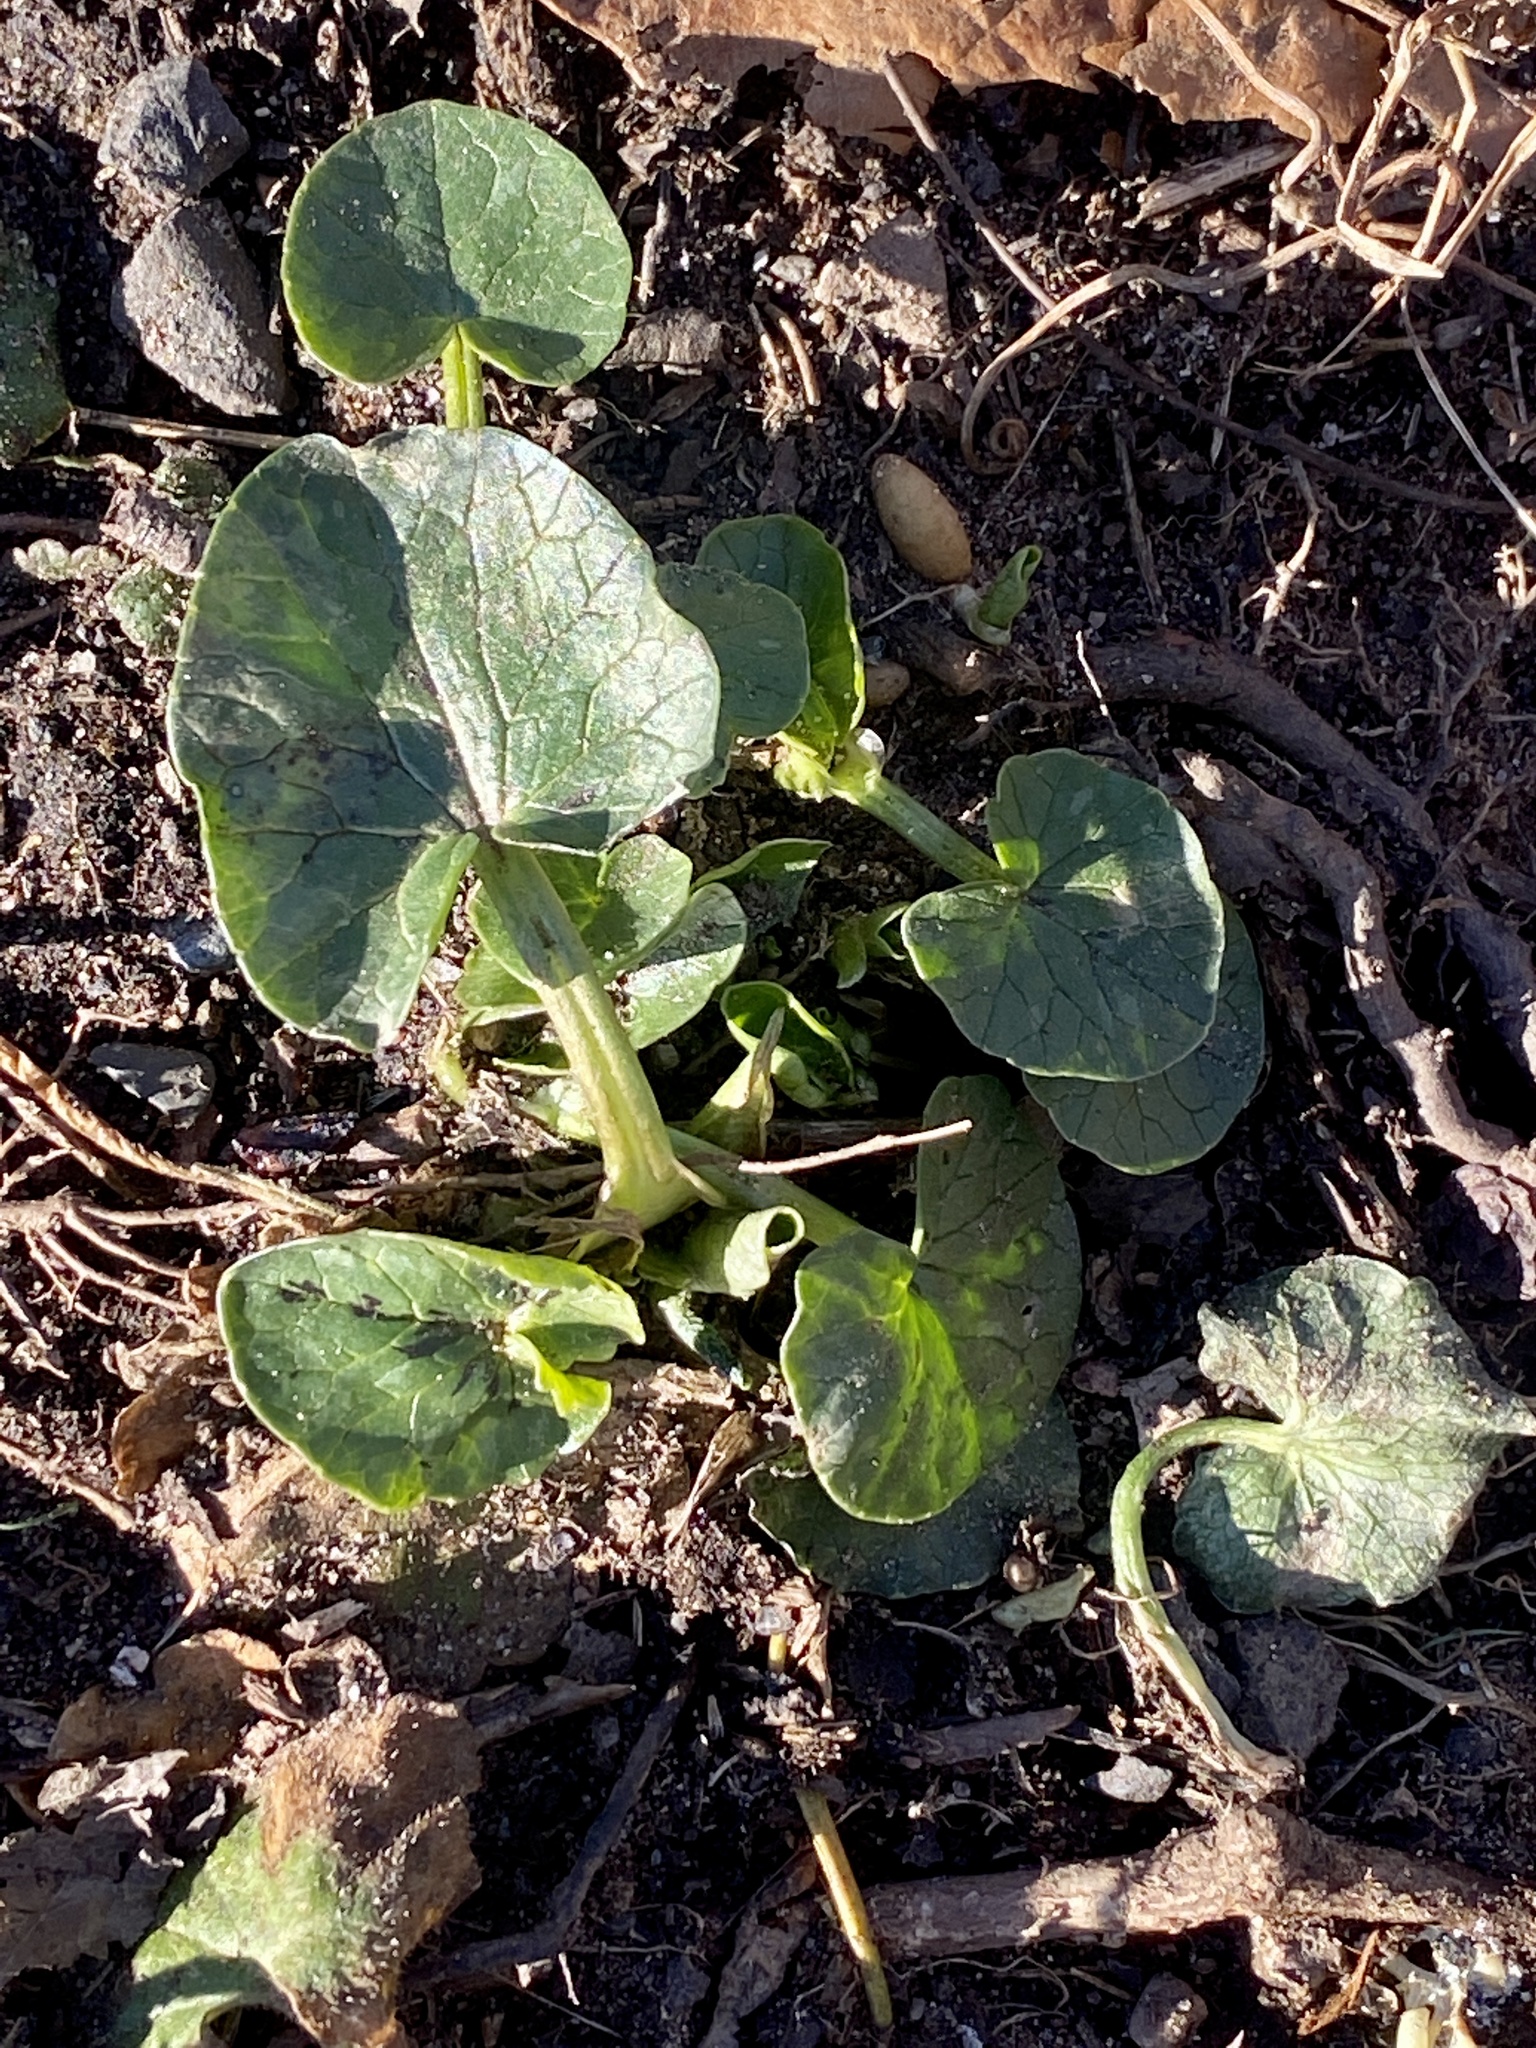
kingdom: Plantae
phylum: Tracheophyta
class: Magnoliopsida
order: Ranunculales
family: Ranunculaceae
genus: Ficaria
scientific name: Ficaria verna
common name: Lesser celandine
